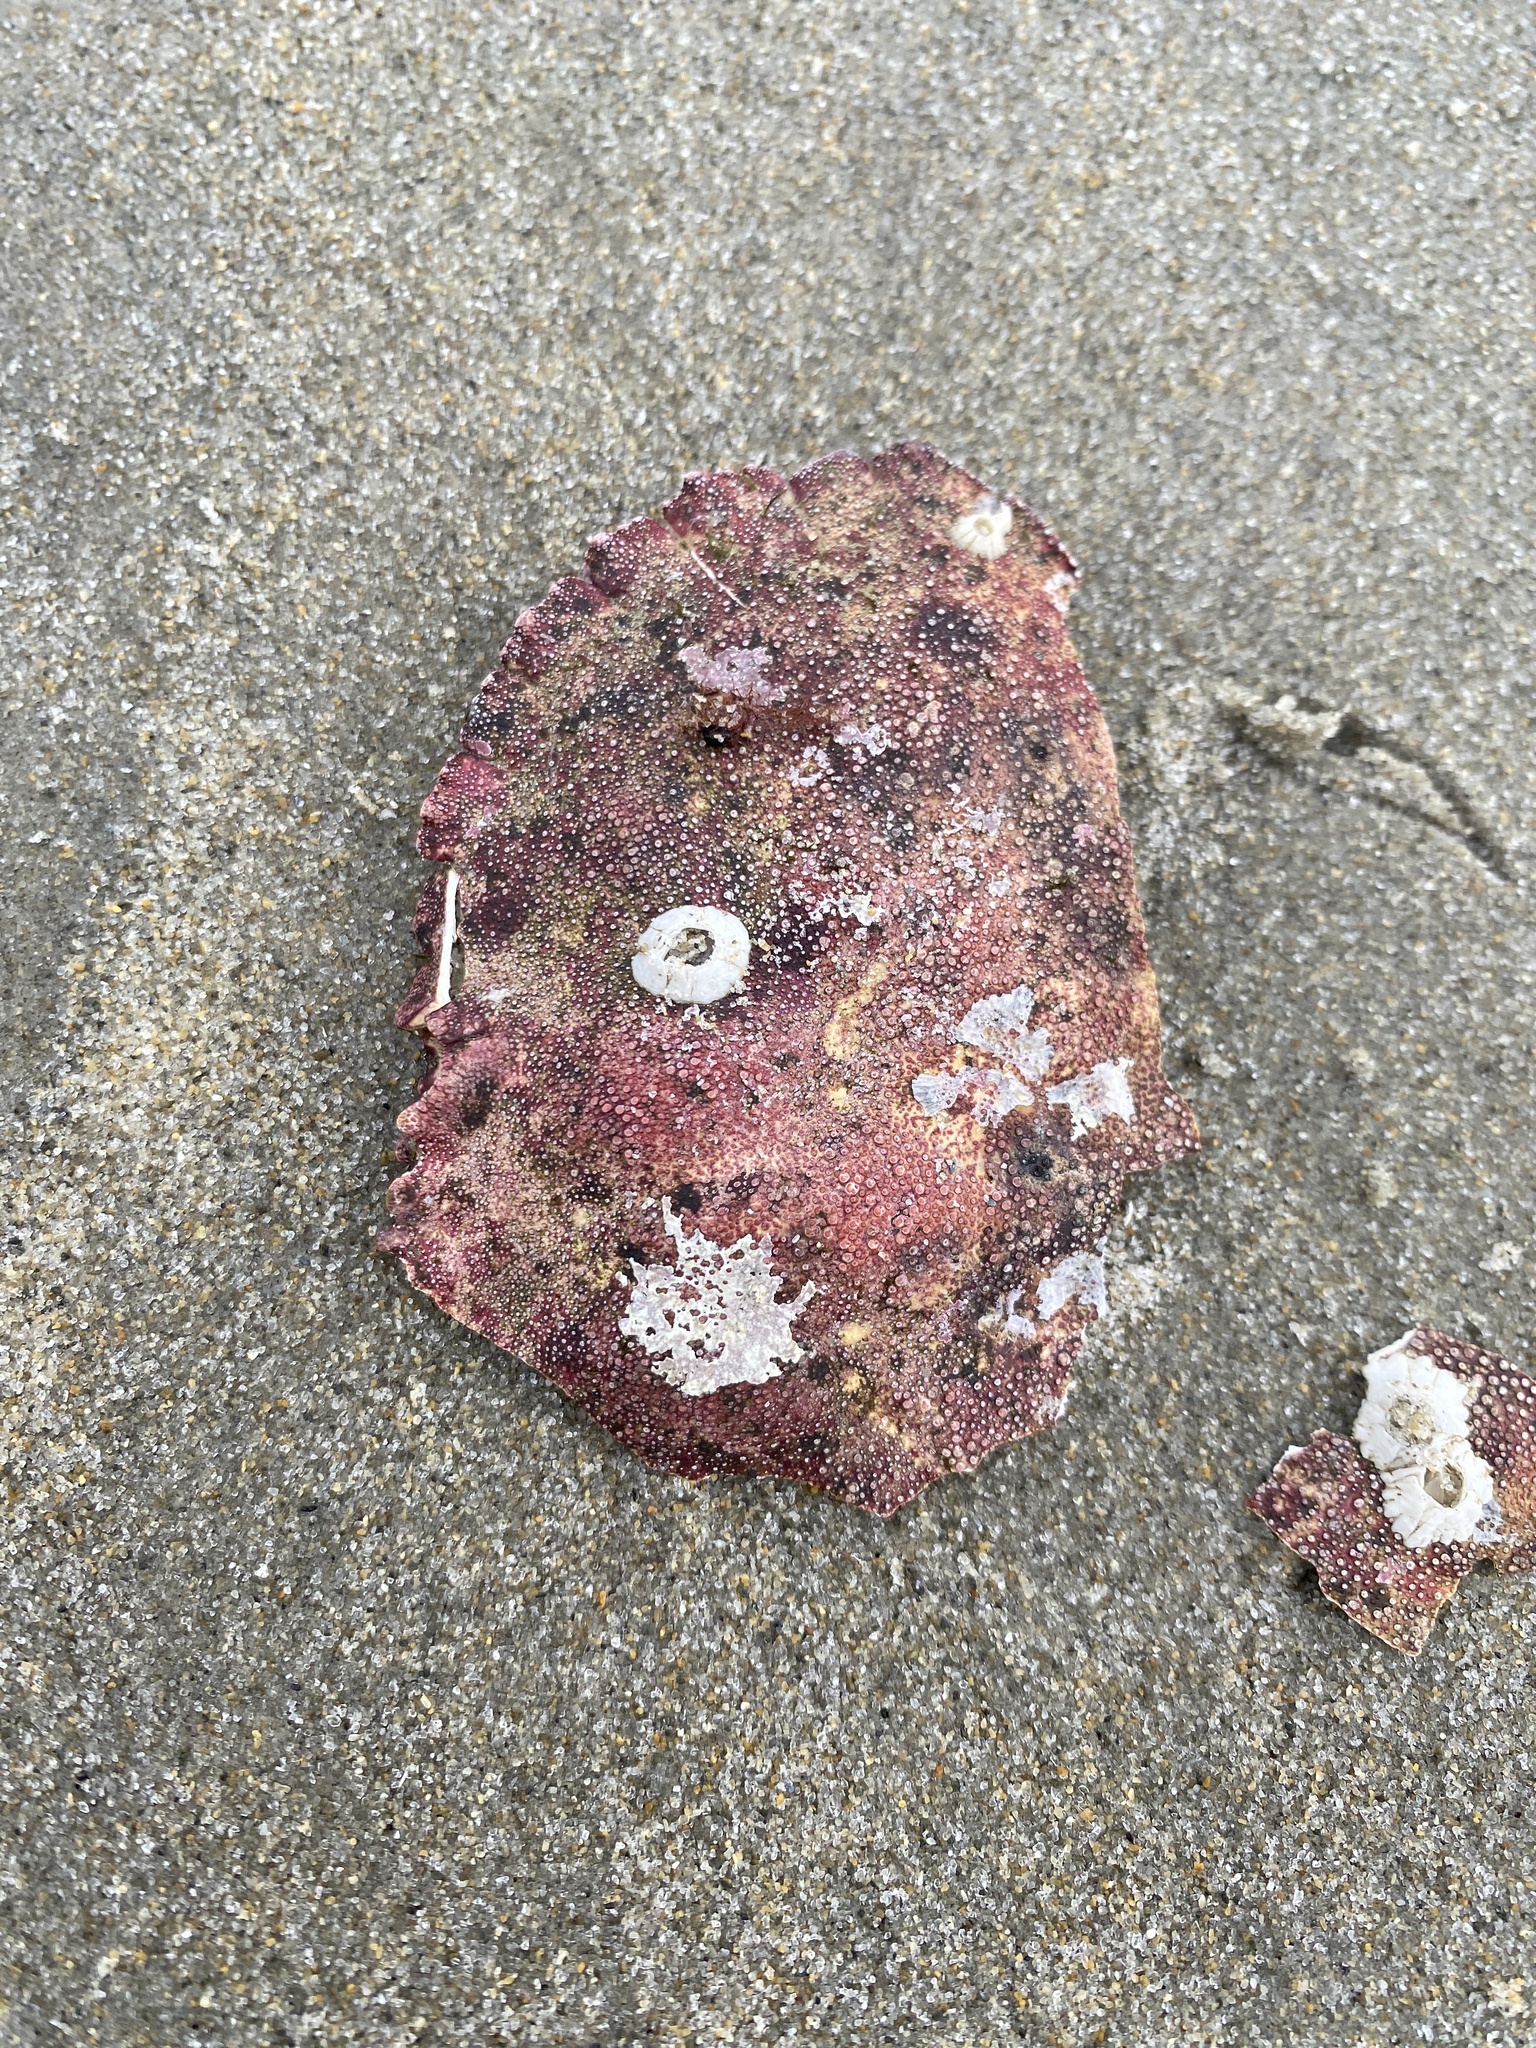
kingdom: Animalia
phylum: Arthropoda
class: Malacostraca
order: Decapoda
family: Cancridae
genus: Cancer
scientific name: Cancer borealis
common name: Jonah crab
